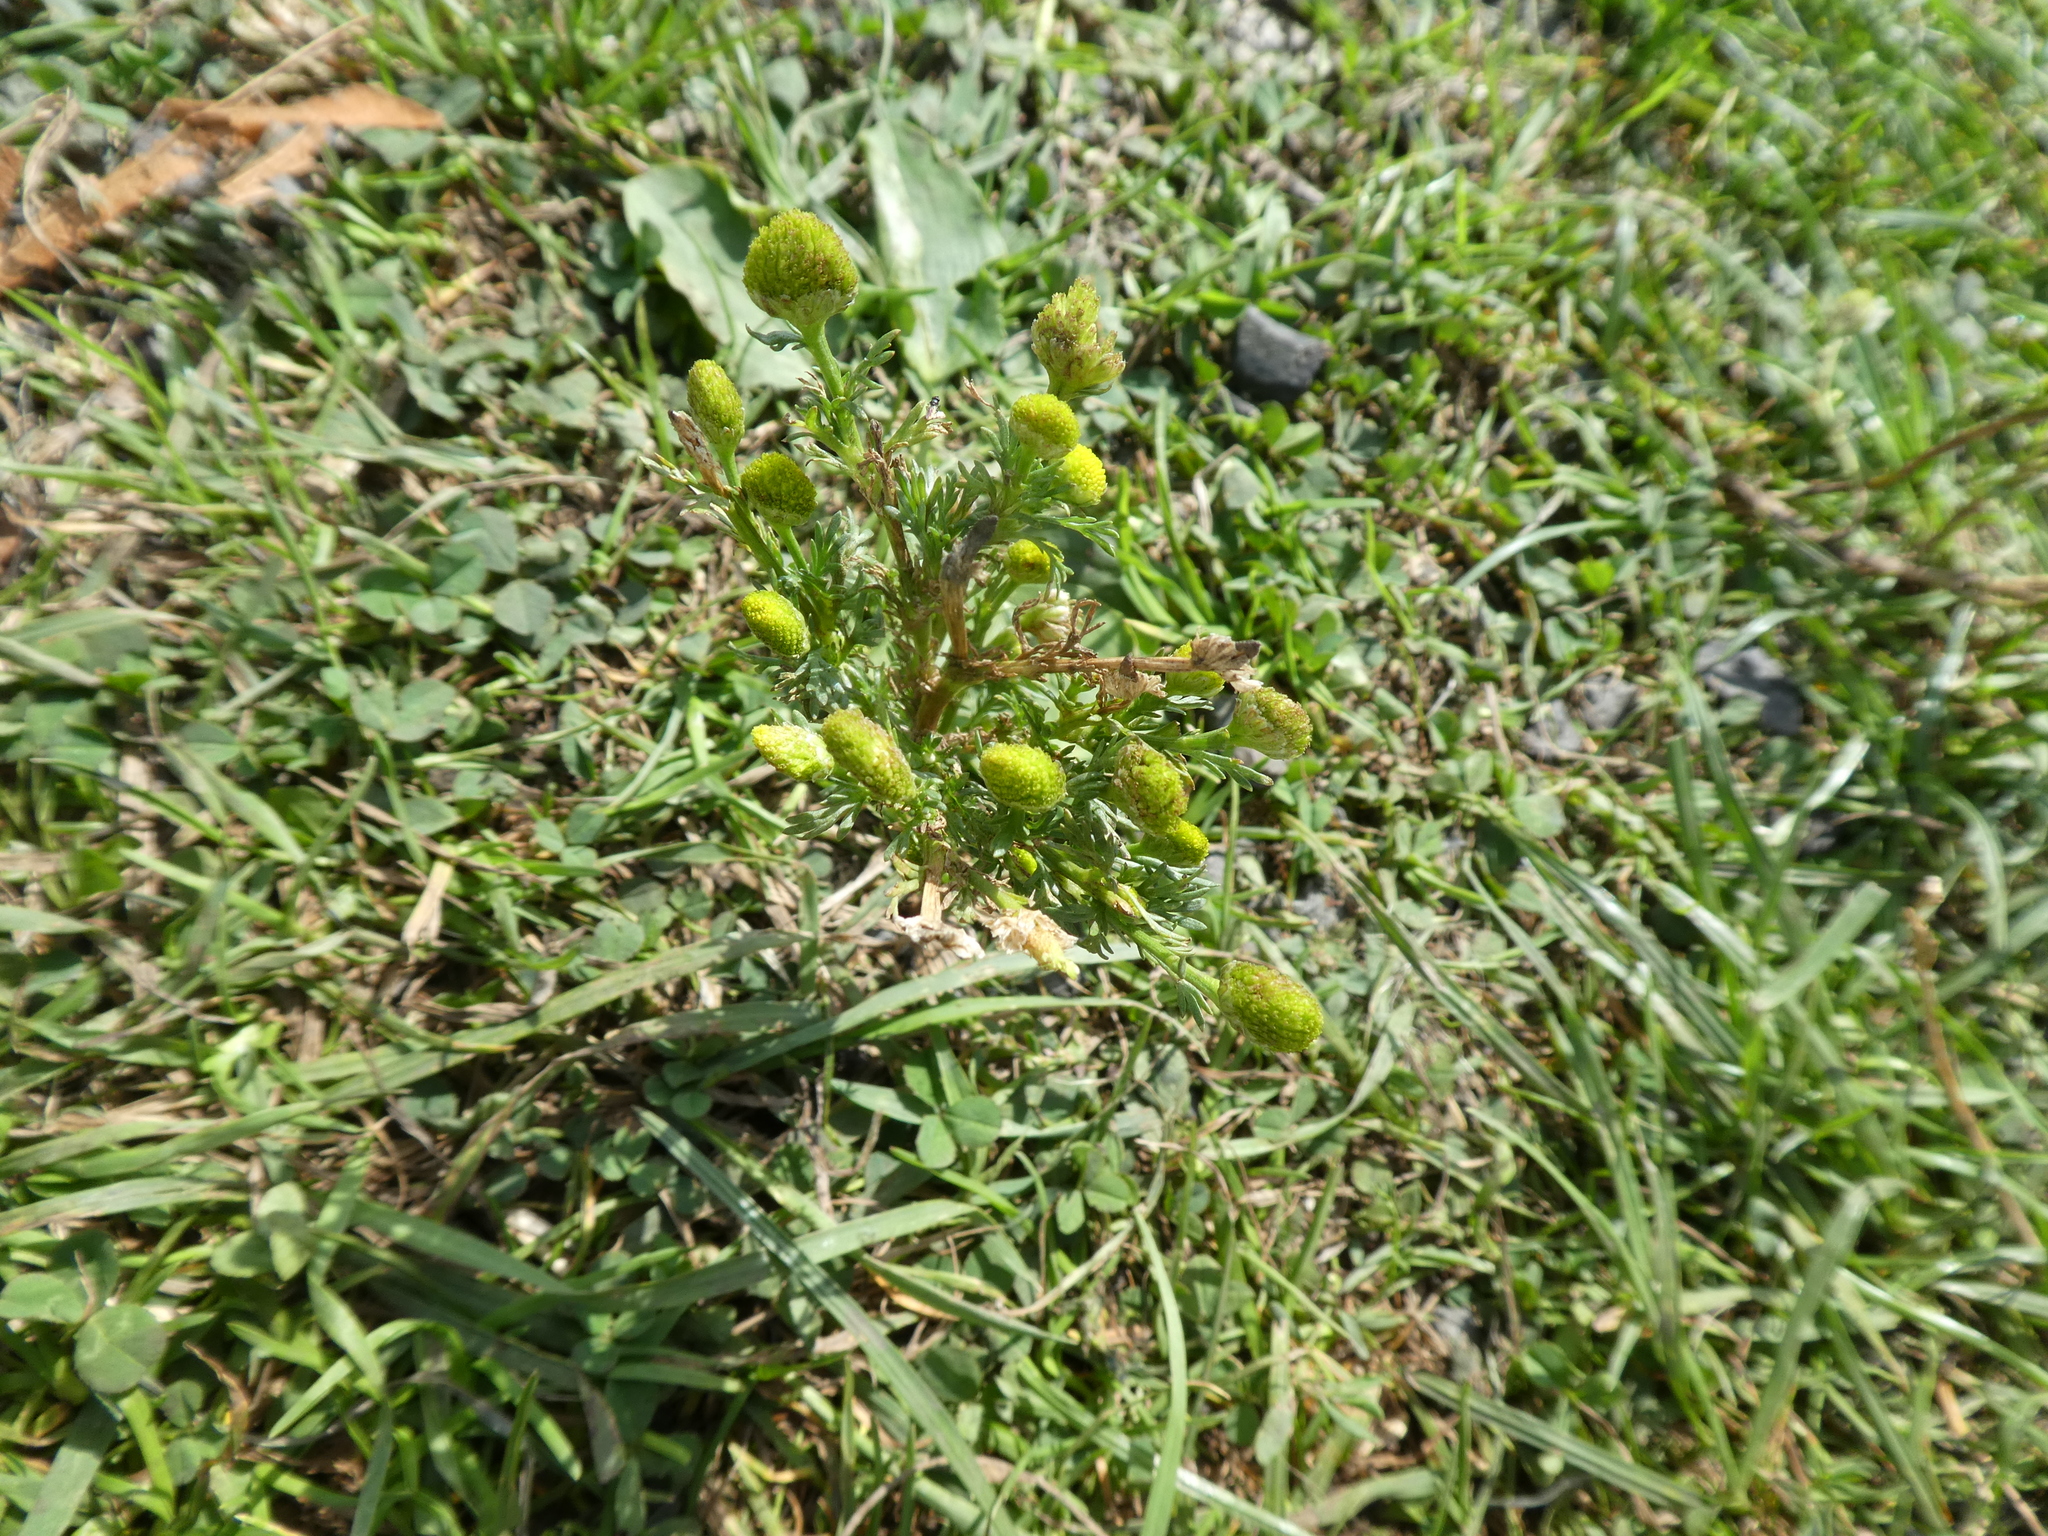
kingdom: Plantae
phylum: Tracheophyta
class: Magnoliopsida
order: Asterales
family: Asteraceae
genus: Matricaria
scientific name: Matricaria discoidea
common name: Disc mayweed
